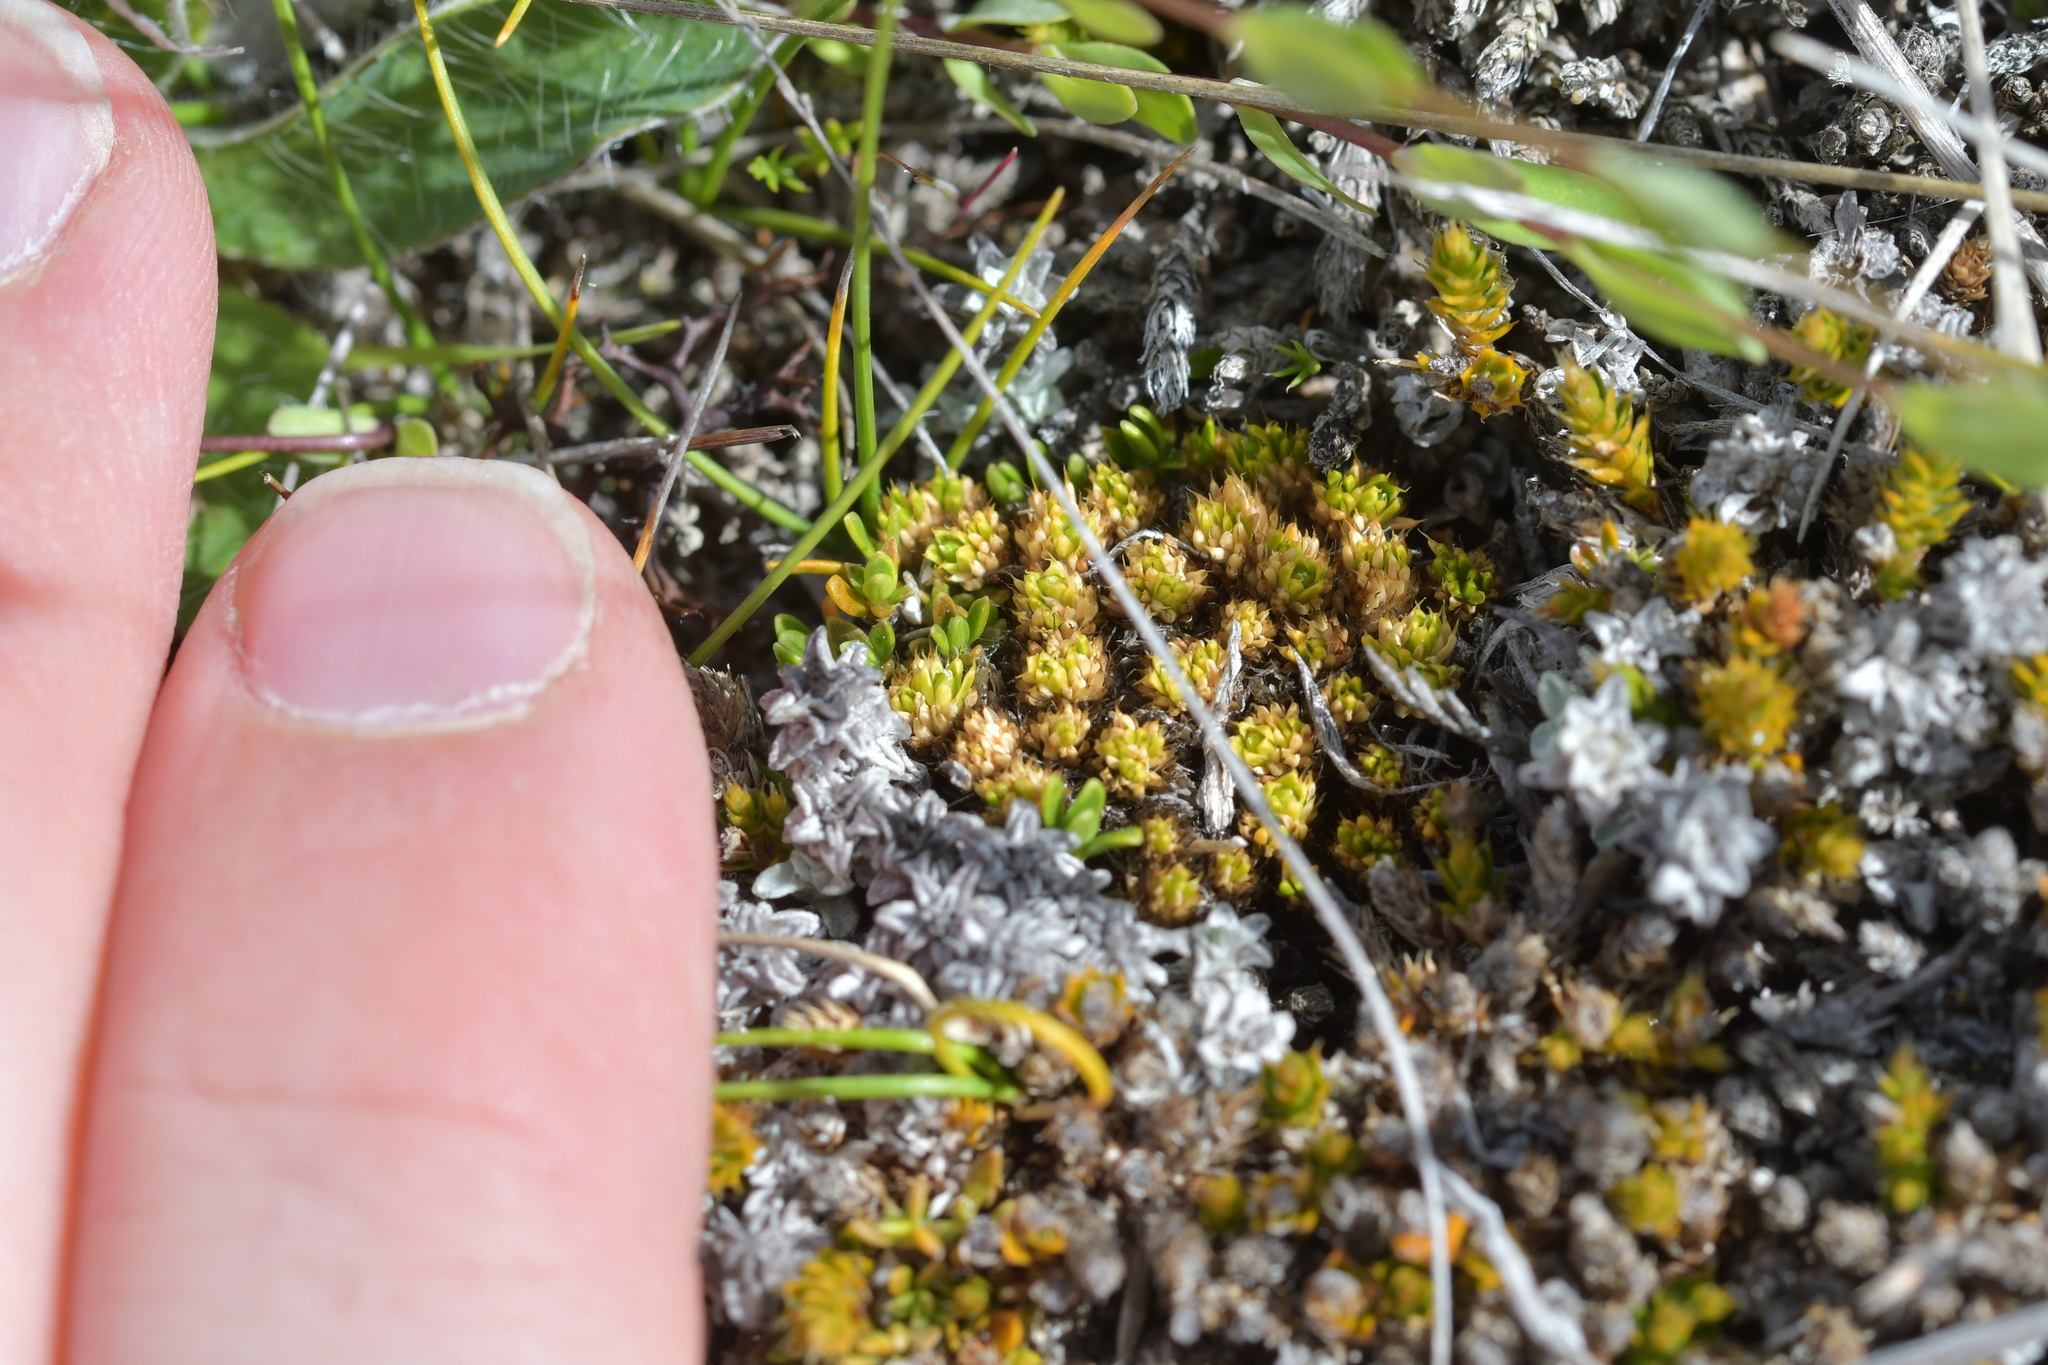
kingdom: Plantae
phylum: Tracheophyta
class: Magnoliopsida
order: Caryophyllales
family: Caryophyllaceae
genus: Colobanthus
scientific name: Colobanthus brevisepalus
